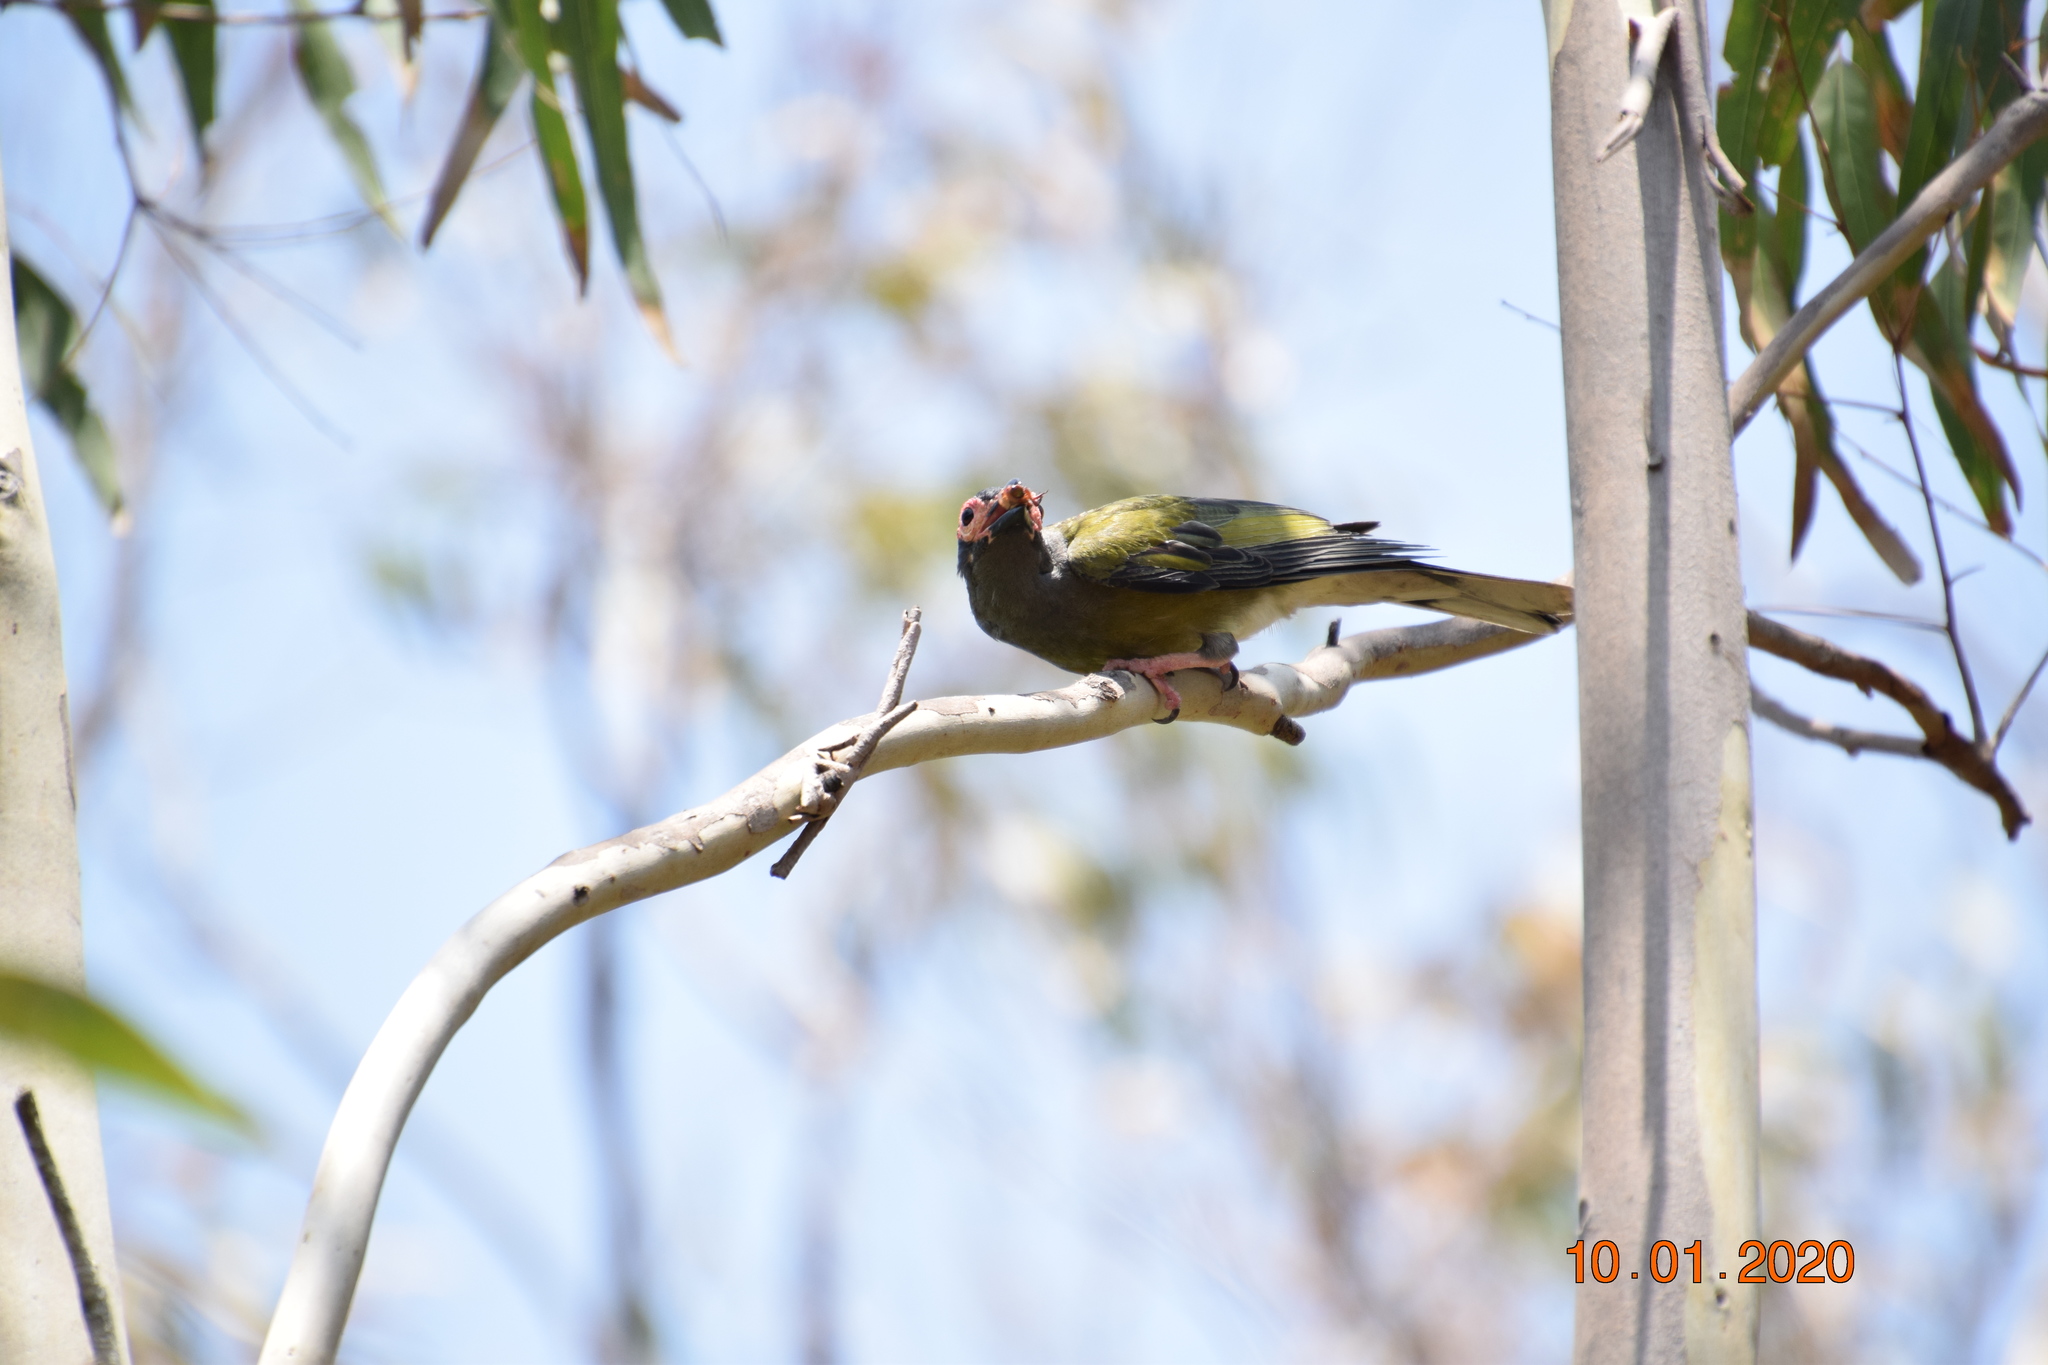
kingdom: Animalia
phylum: Chordata
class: Aves
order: Passeriformes
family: Oriolidae
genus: Sphecotheres
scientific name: Sphecotheres vieilloti
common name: Australasian figbird
